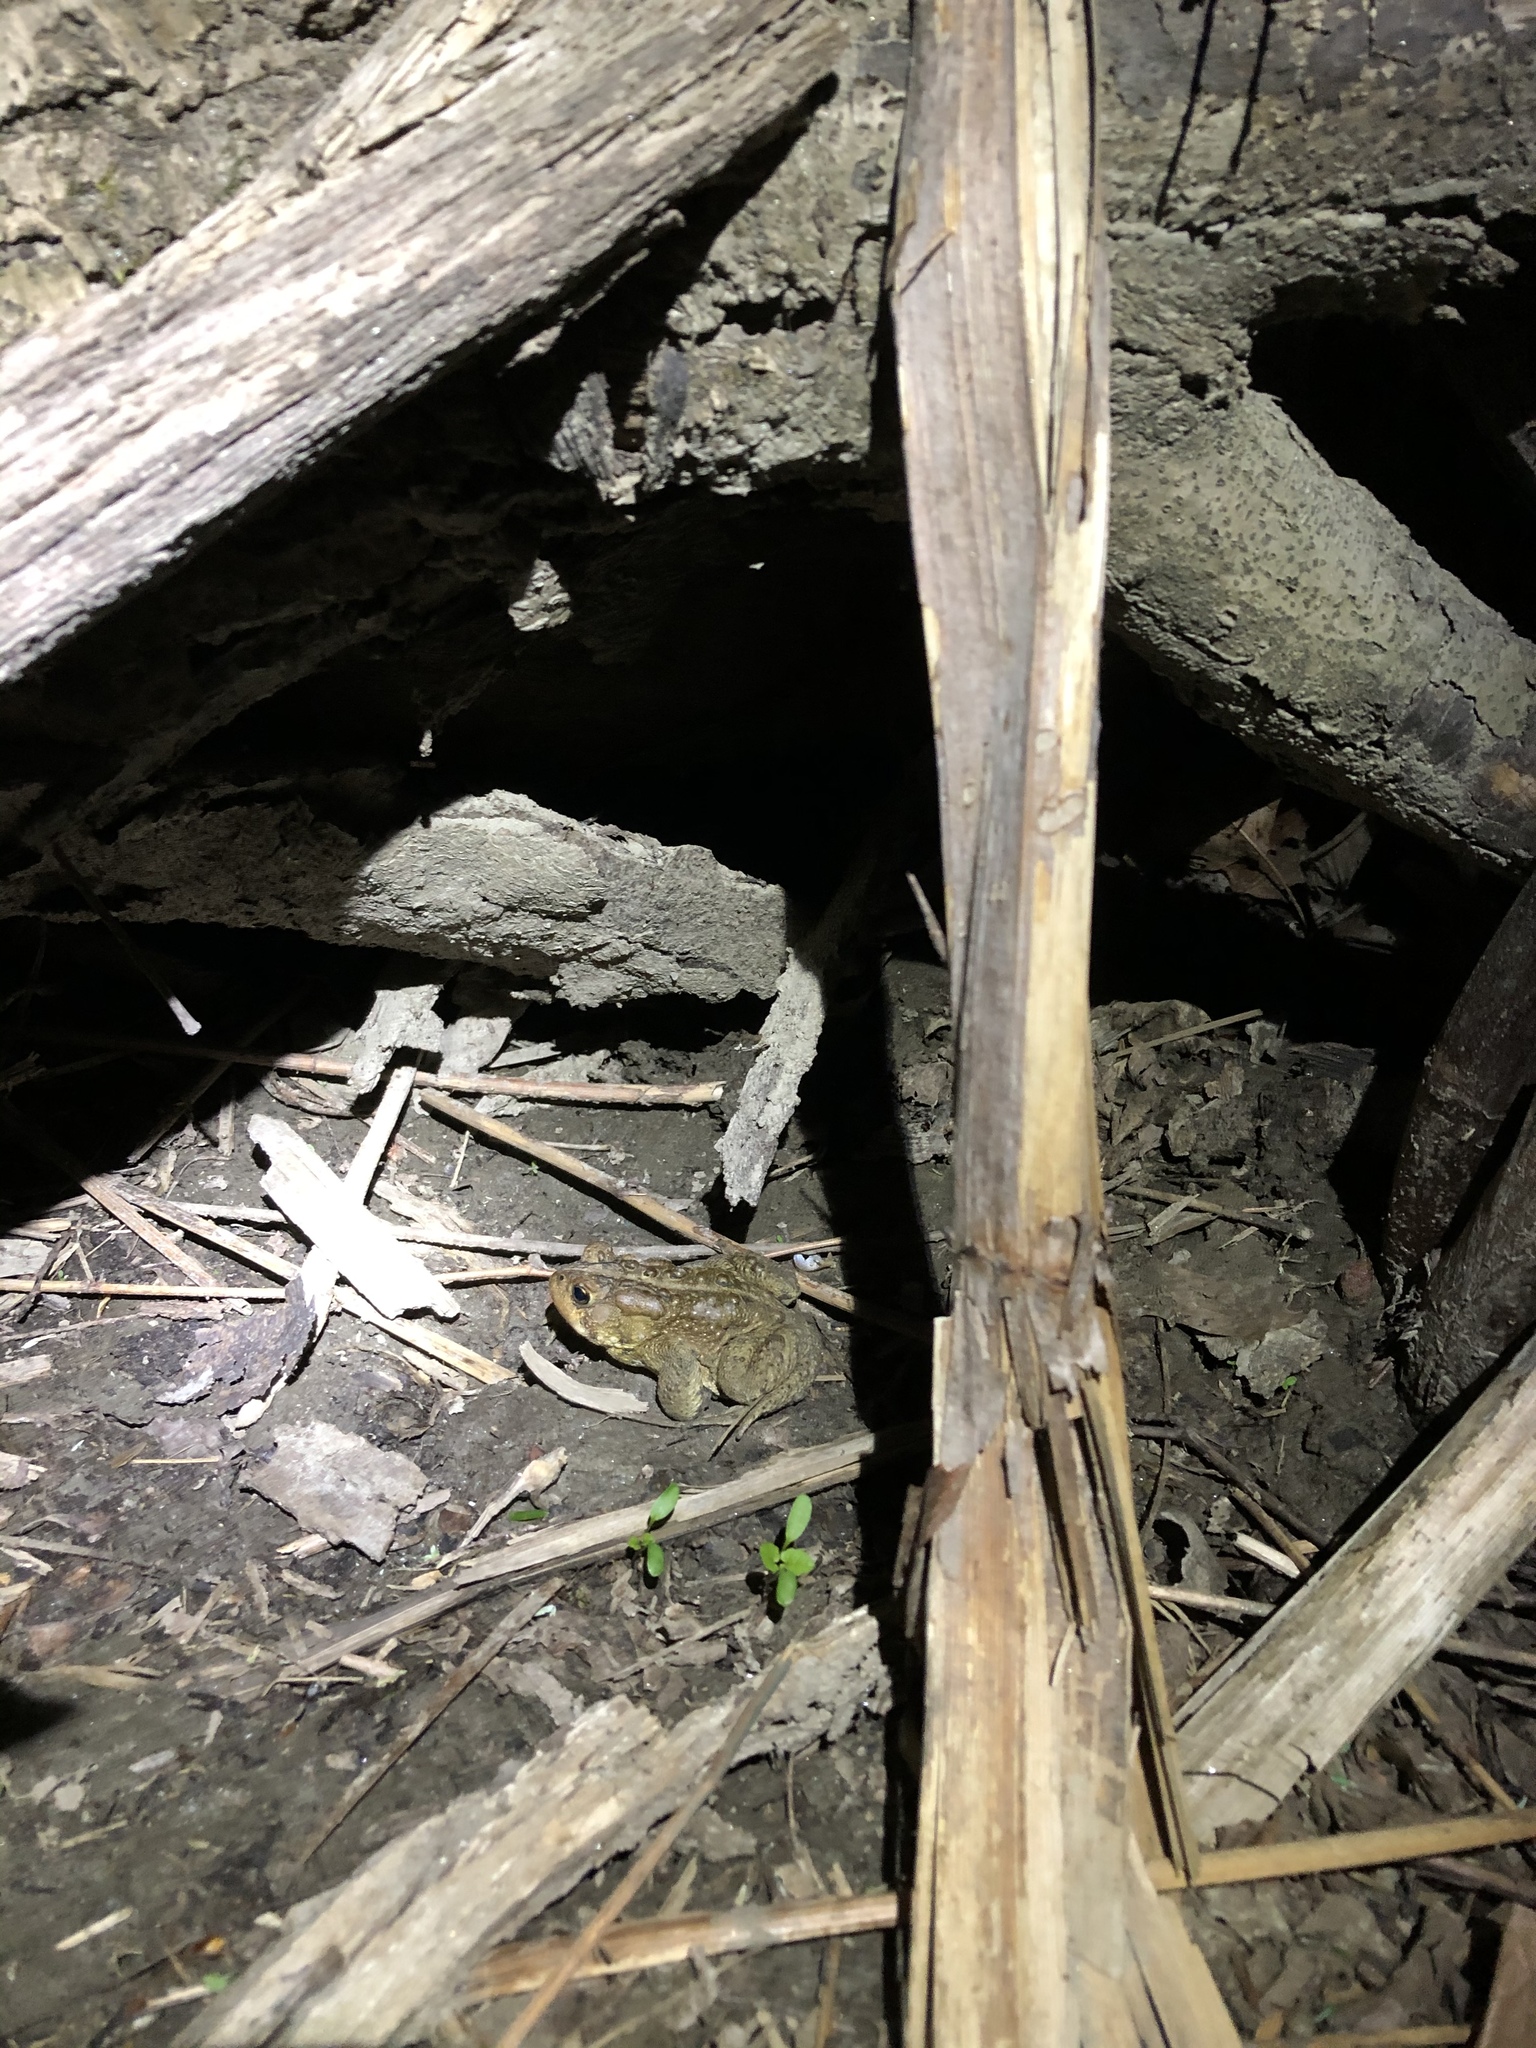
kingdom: Animalia
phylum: Chordata
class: Amphibia
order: Anura
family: Bufonidae
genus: Anaxyrus
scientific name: Anaxyrus americanus
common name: American toad
